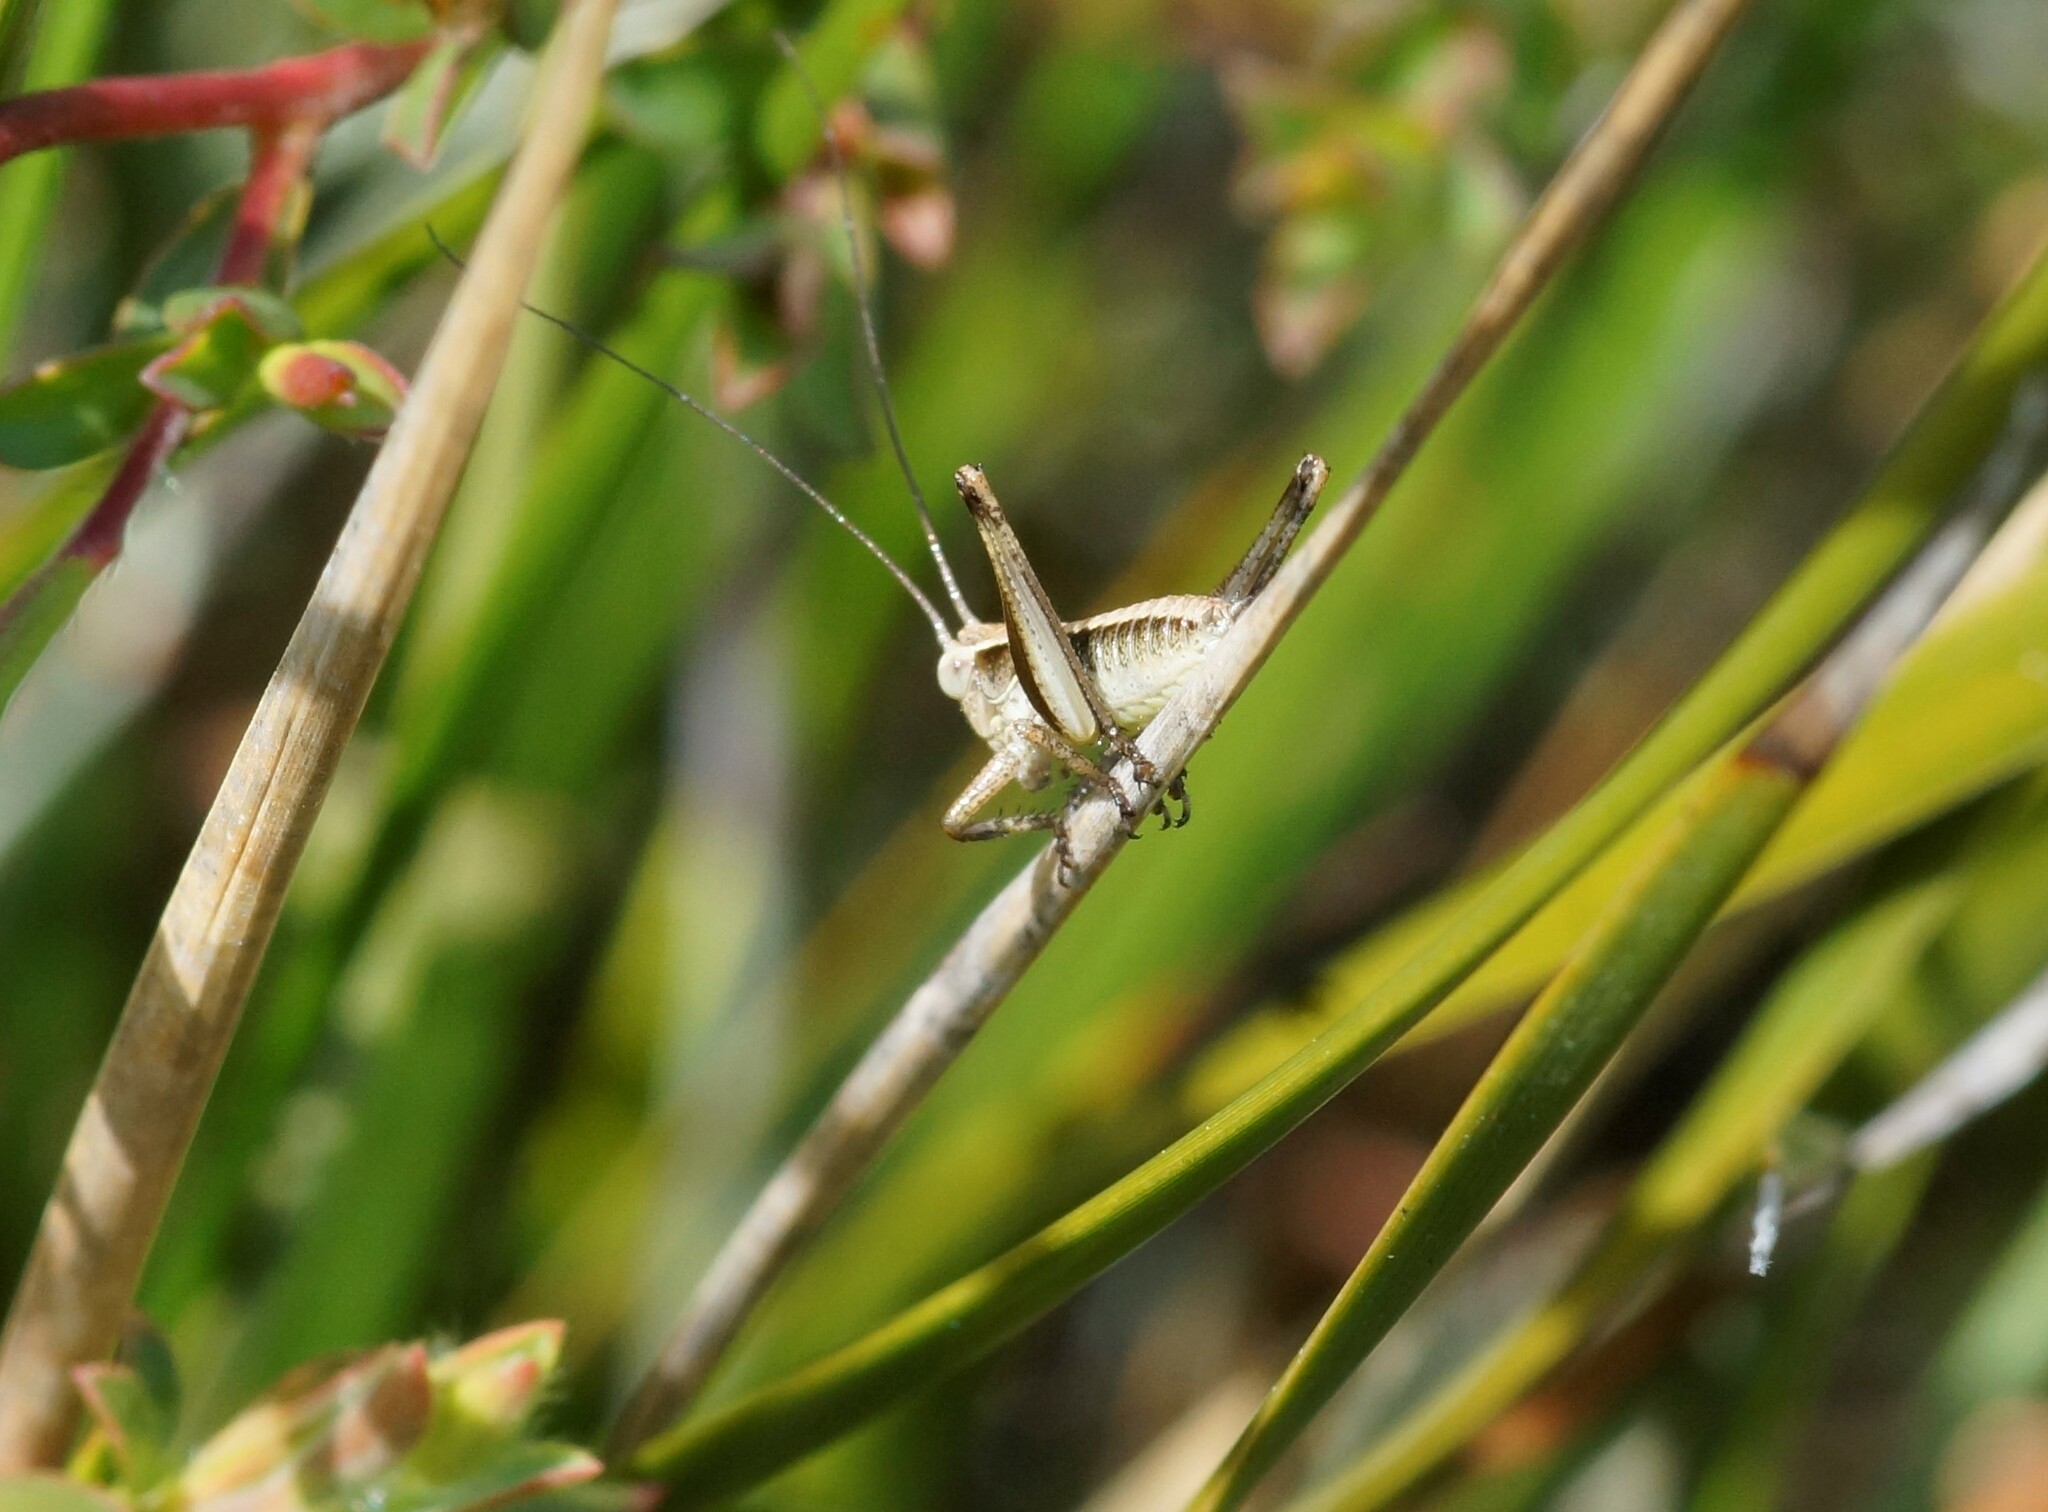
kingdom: Animalia
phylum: Arthropoda
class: Insecta
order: Orthoptera
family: Tettigoniidae
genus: Nanodectes
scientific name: Nanodectes veprephila
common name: Heath-dwelling shield-back
